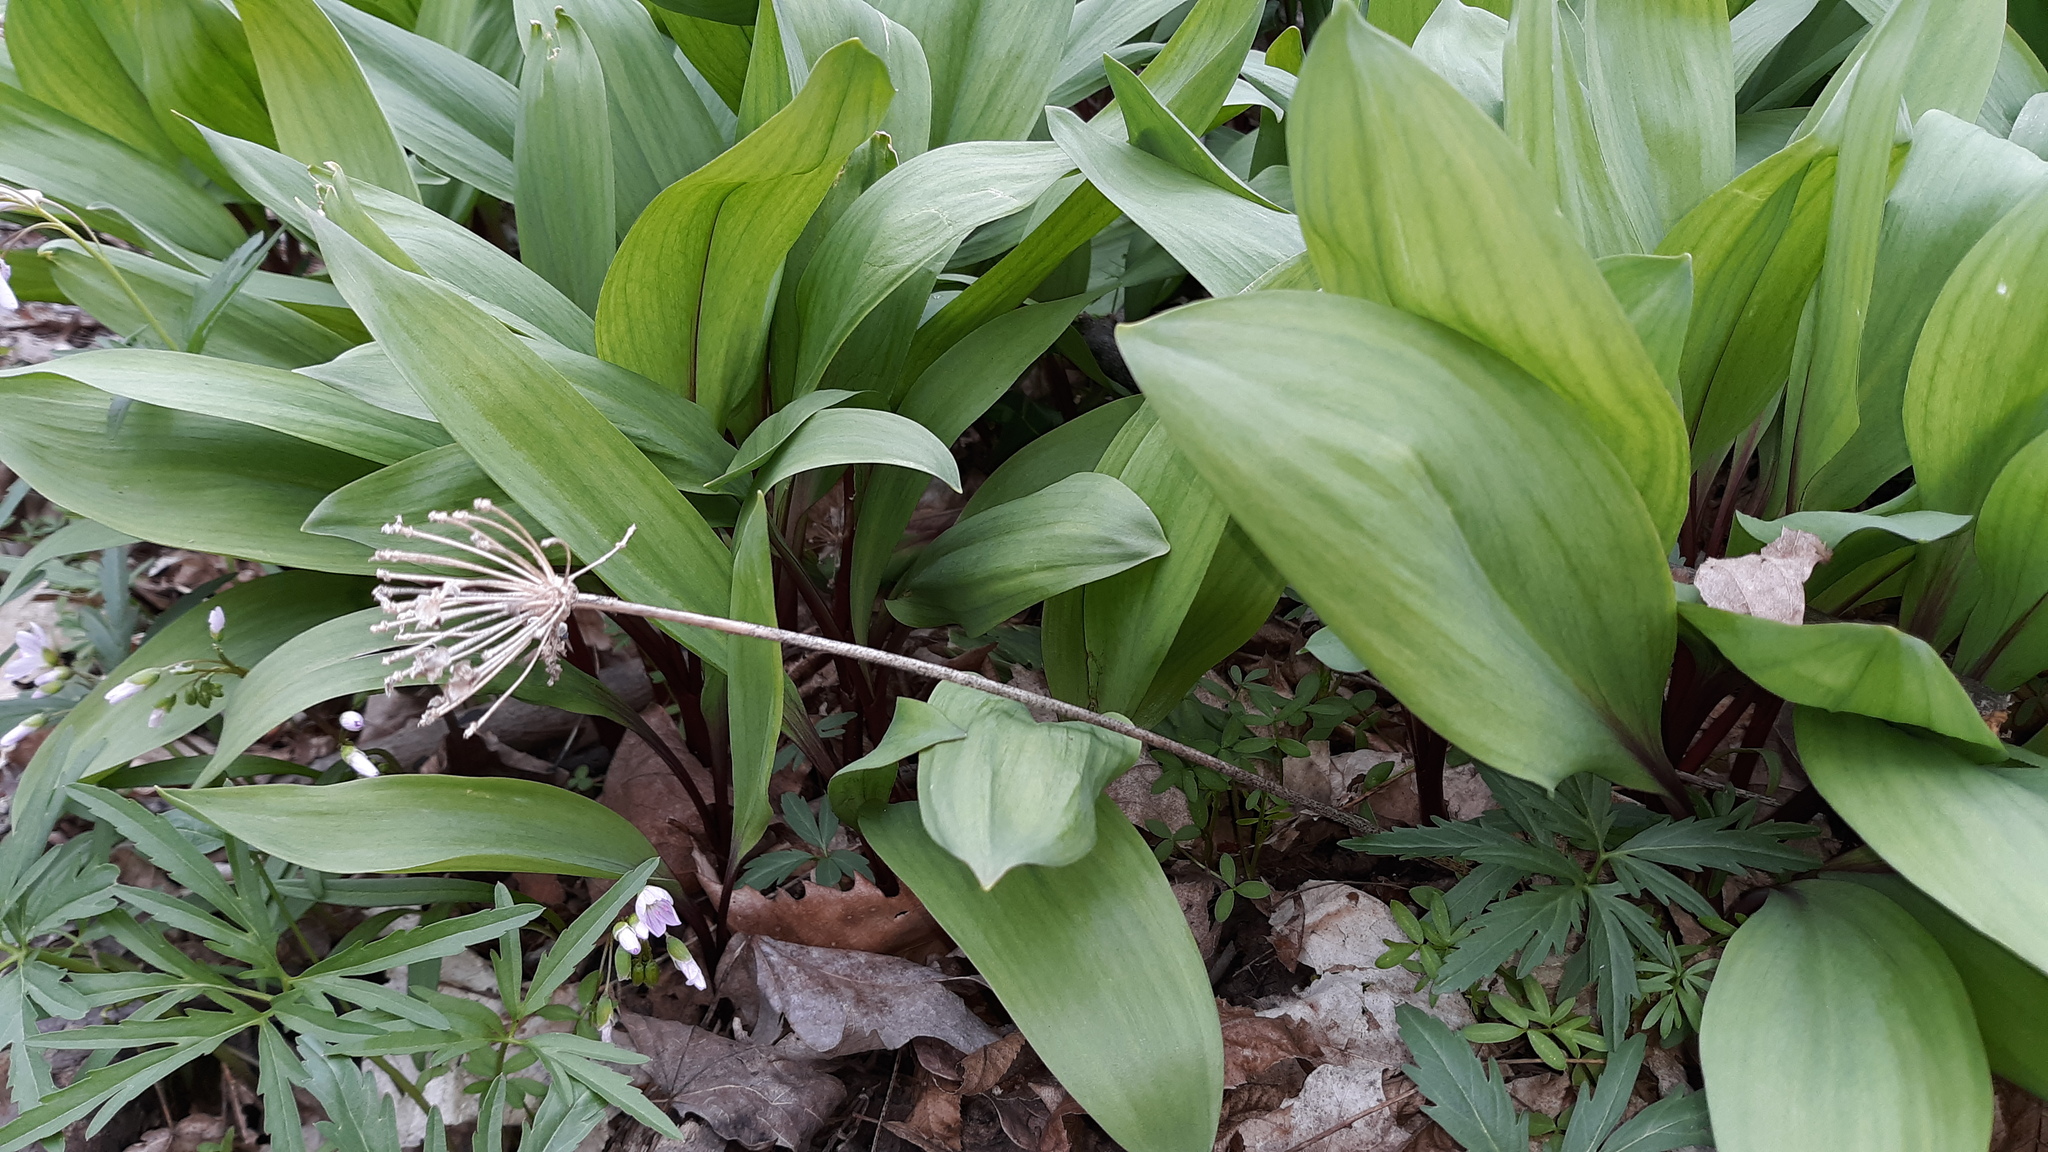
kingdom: Plantae
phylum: Tracheophyta
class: Liliopsida
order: Asparagales
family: Amaryllidaceae
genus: Allium
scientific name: Allium tricoccum
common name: Ramp
